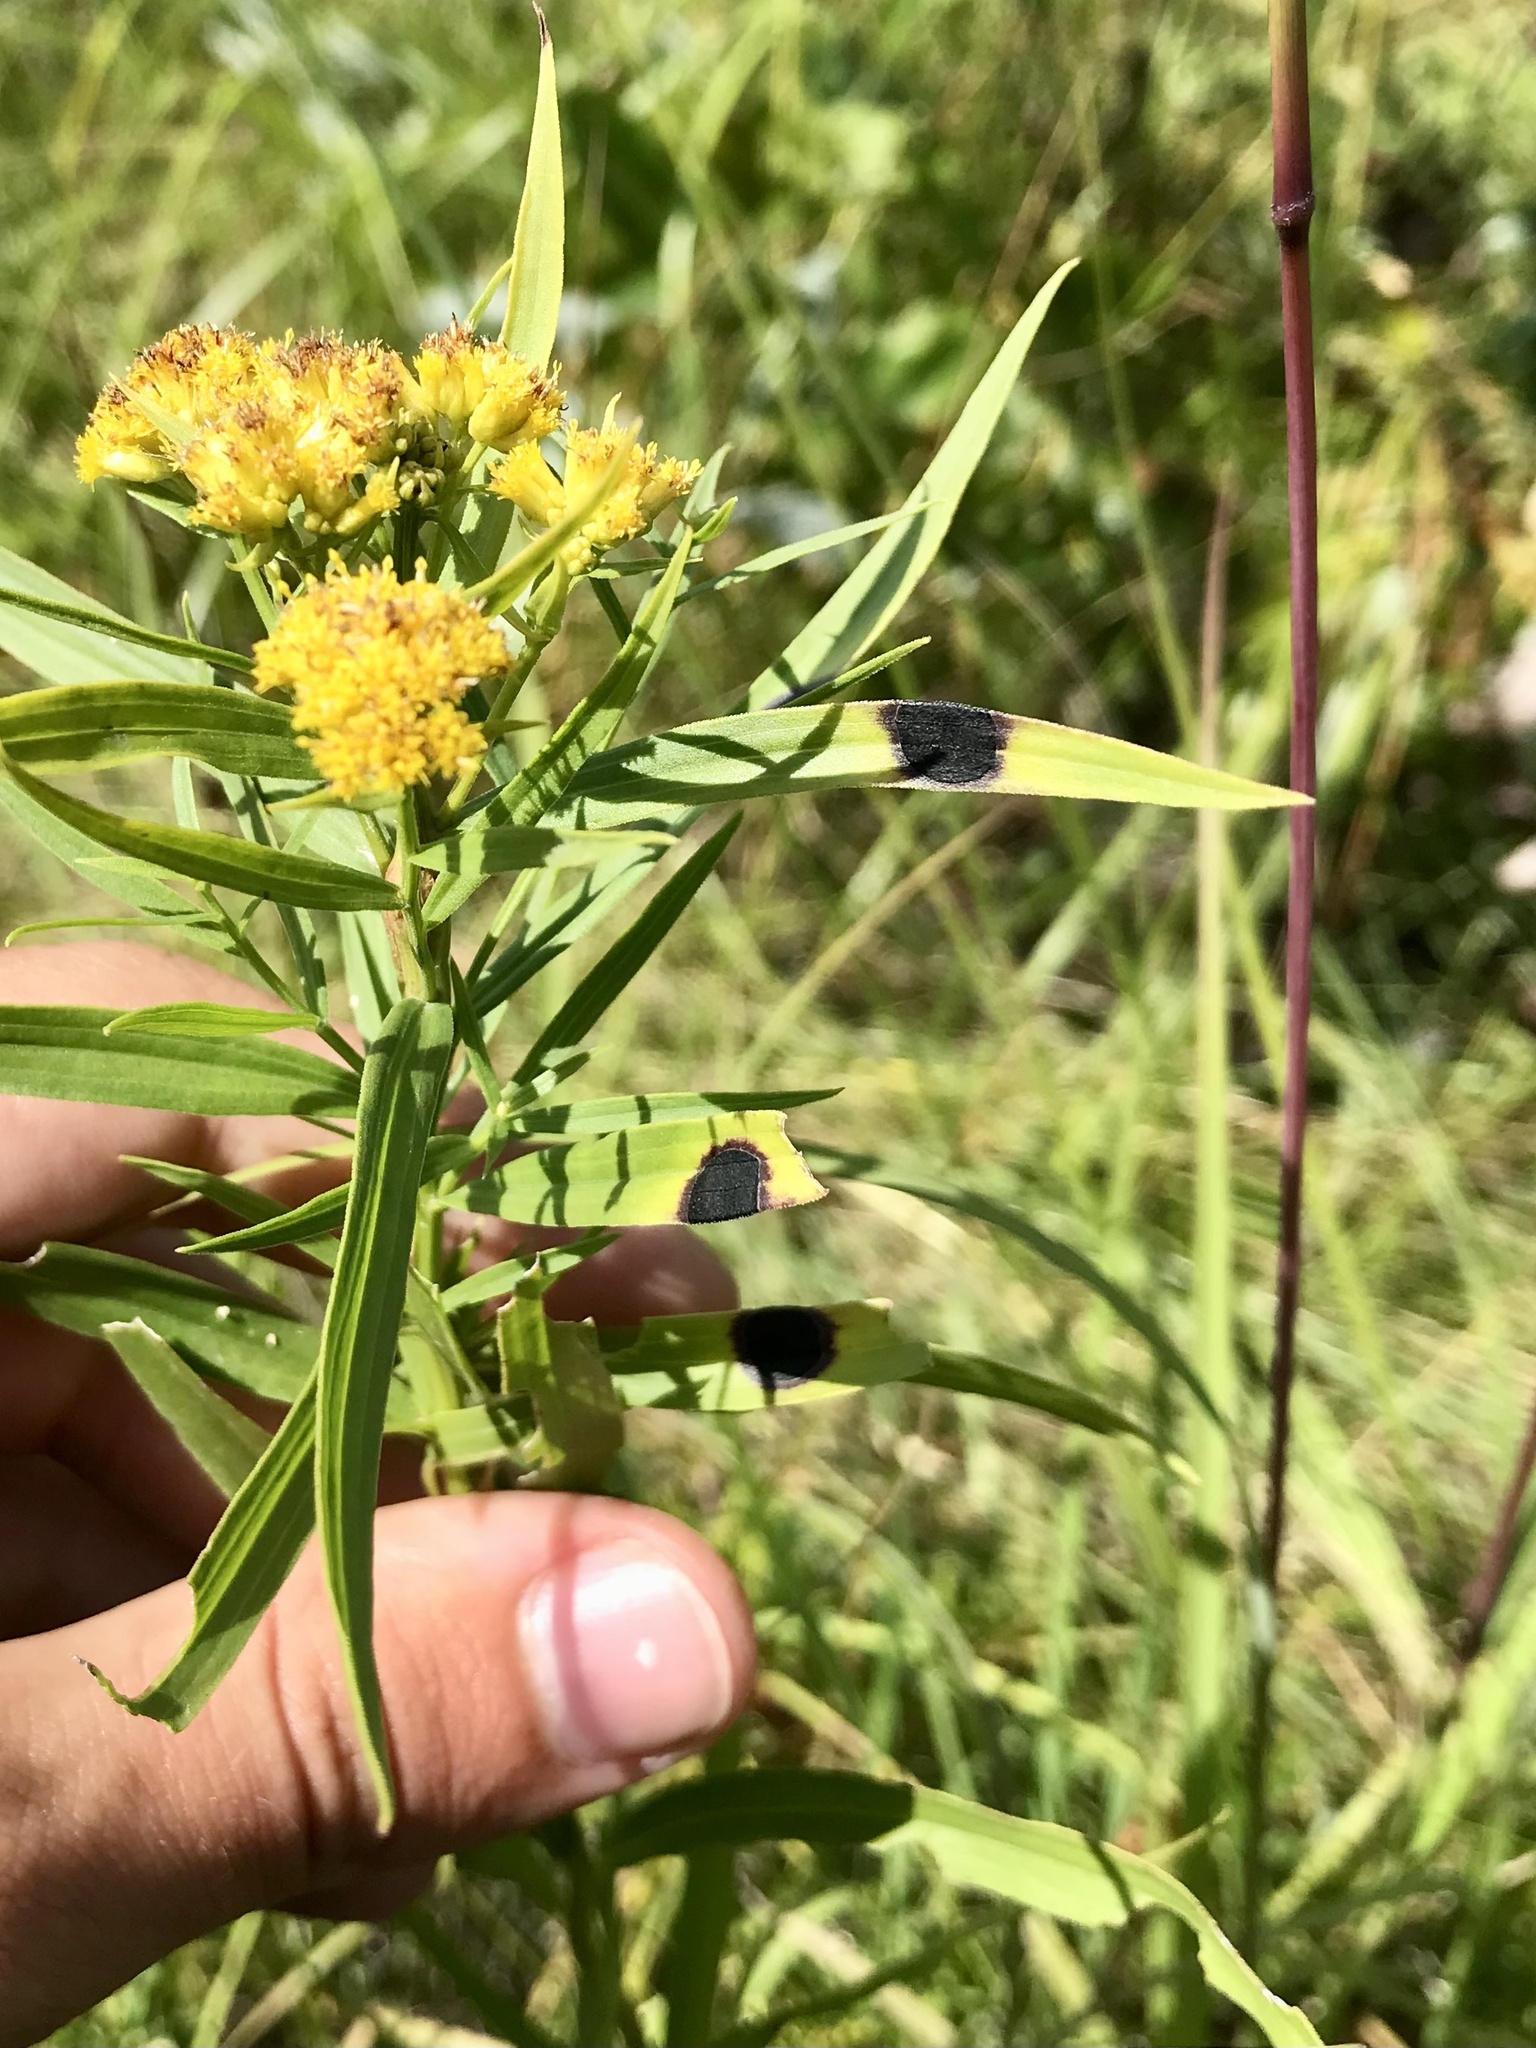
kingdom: Animalia
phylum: Arthropoda
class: Insecta
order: Diptera
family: Cecidomyiidae
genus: Asteromyia
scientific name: Asteromyia euthamiae
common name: Euthamia leaf gall midge
